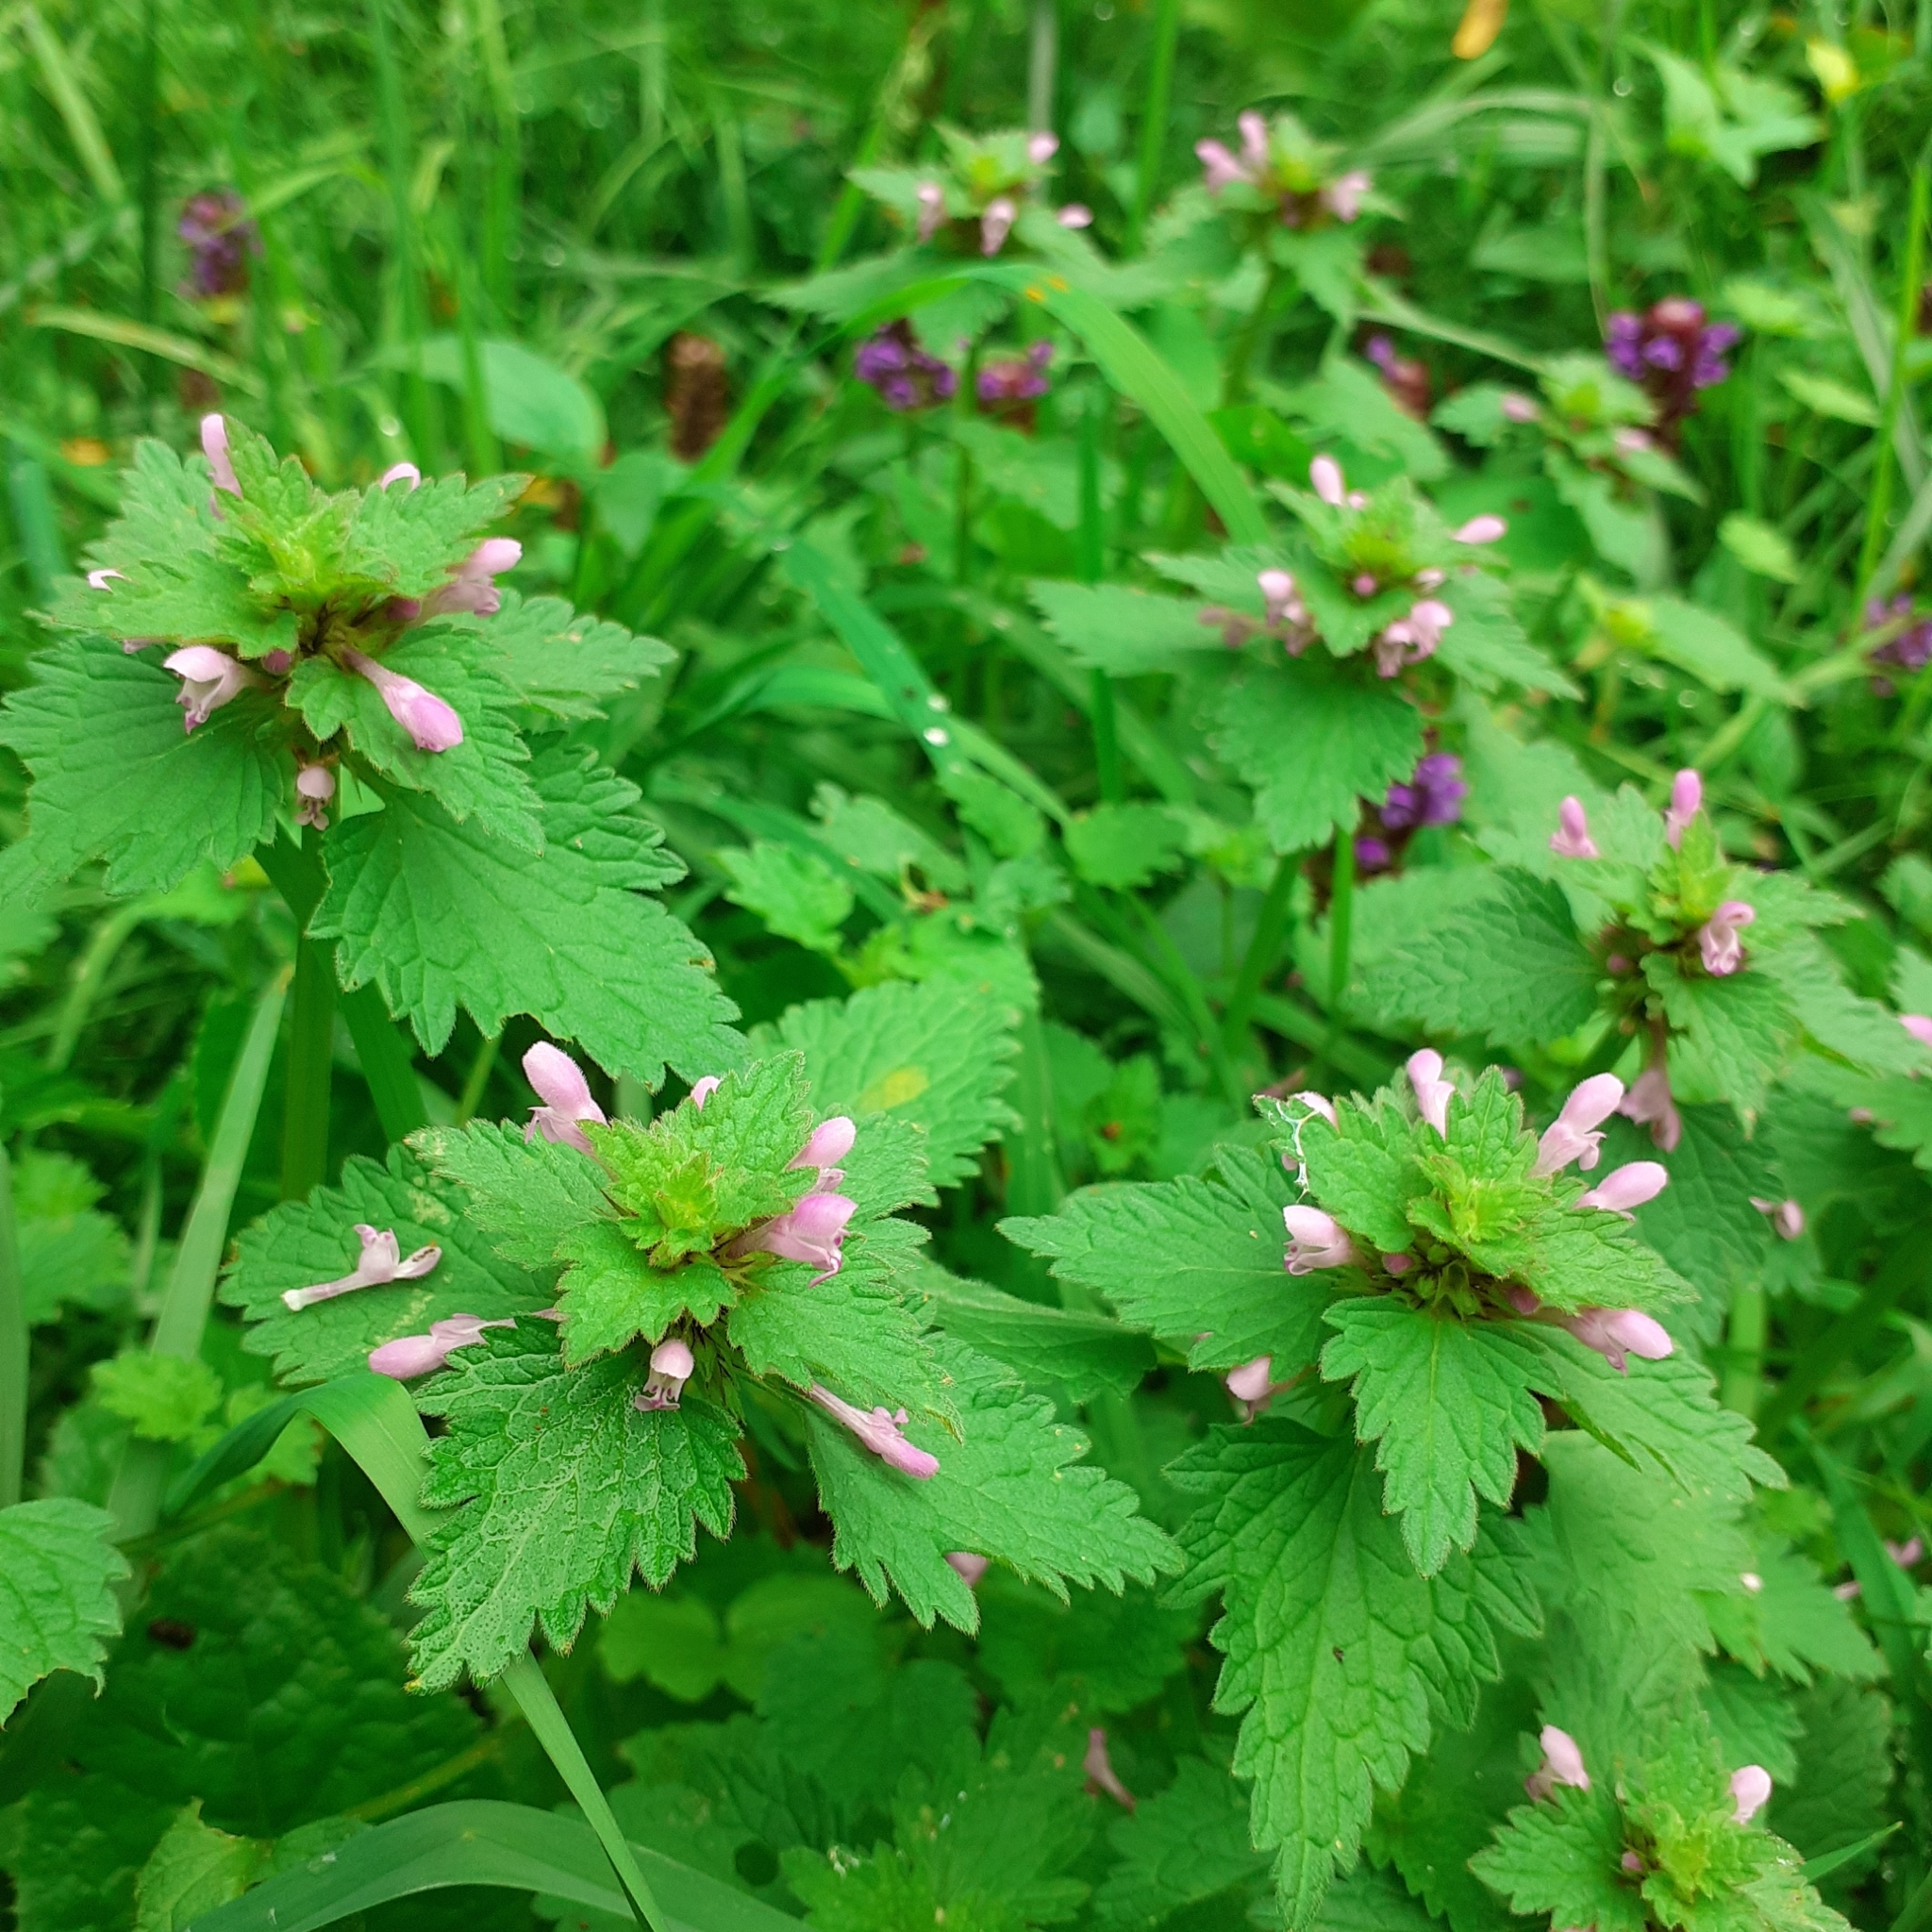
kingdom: Plantae
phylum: Tracheophyta
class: Magnoliopsida
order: Lamiales
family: Lamiaceae
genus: Lamium
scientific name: Lamium hybridum
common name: Cut-leaved dead-nettle
